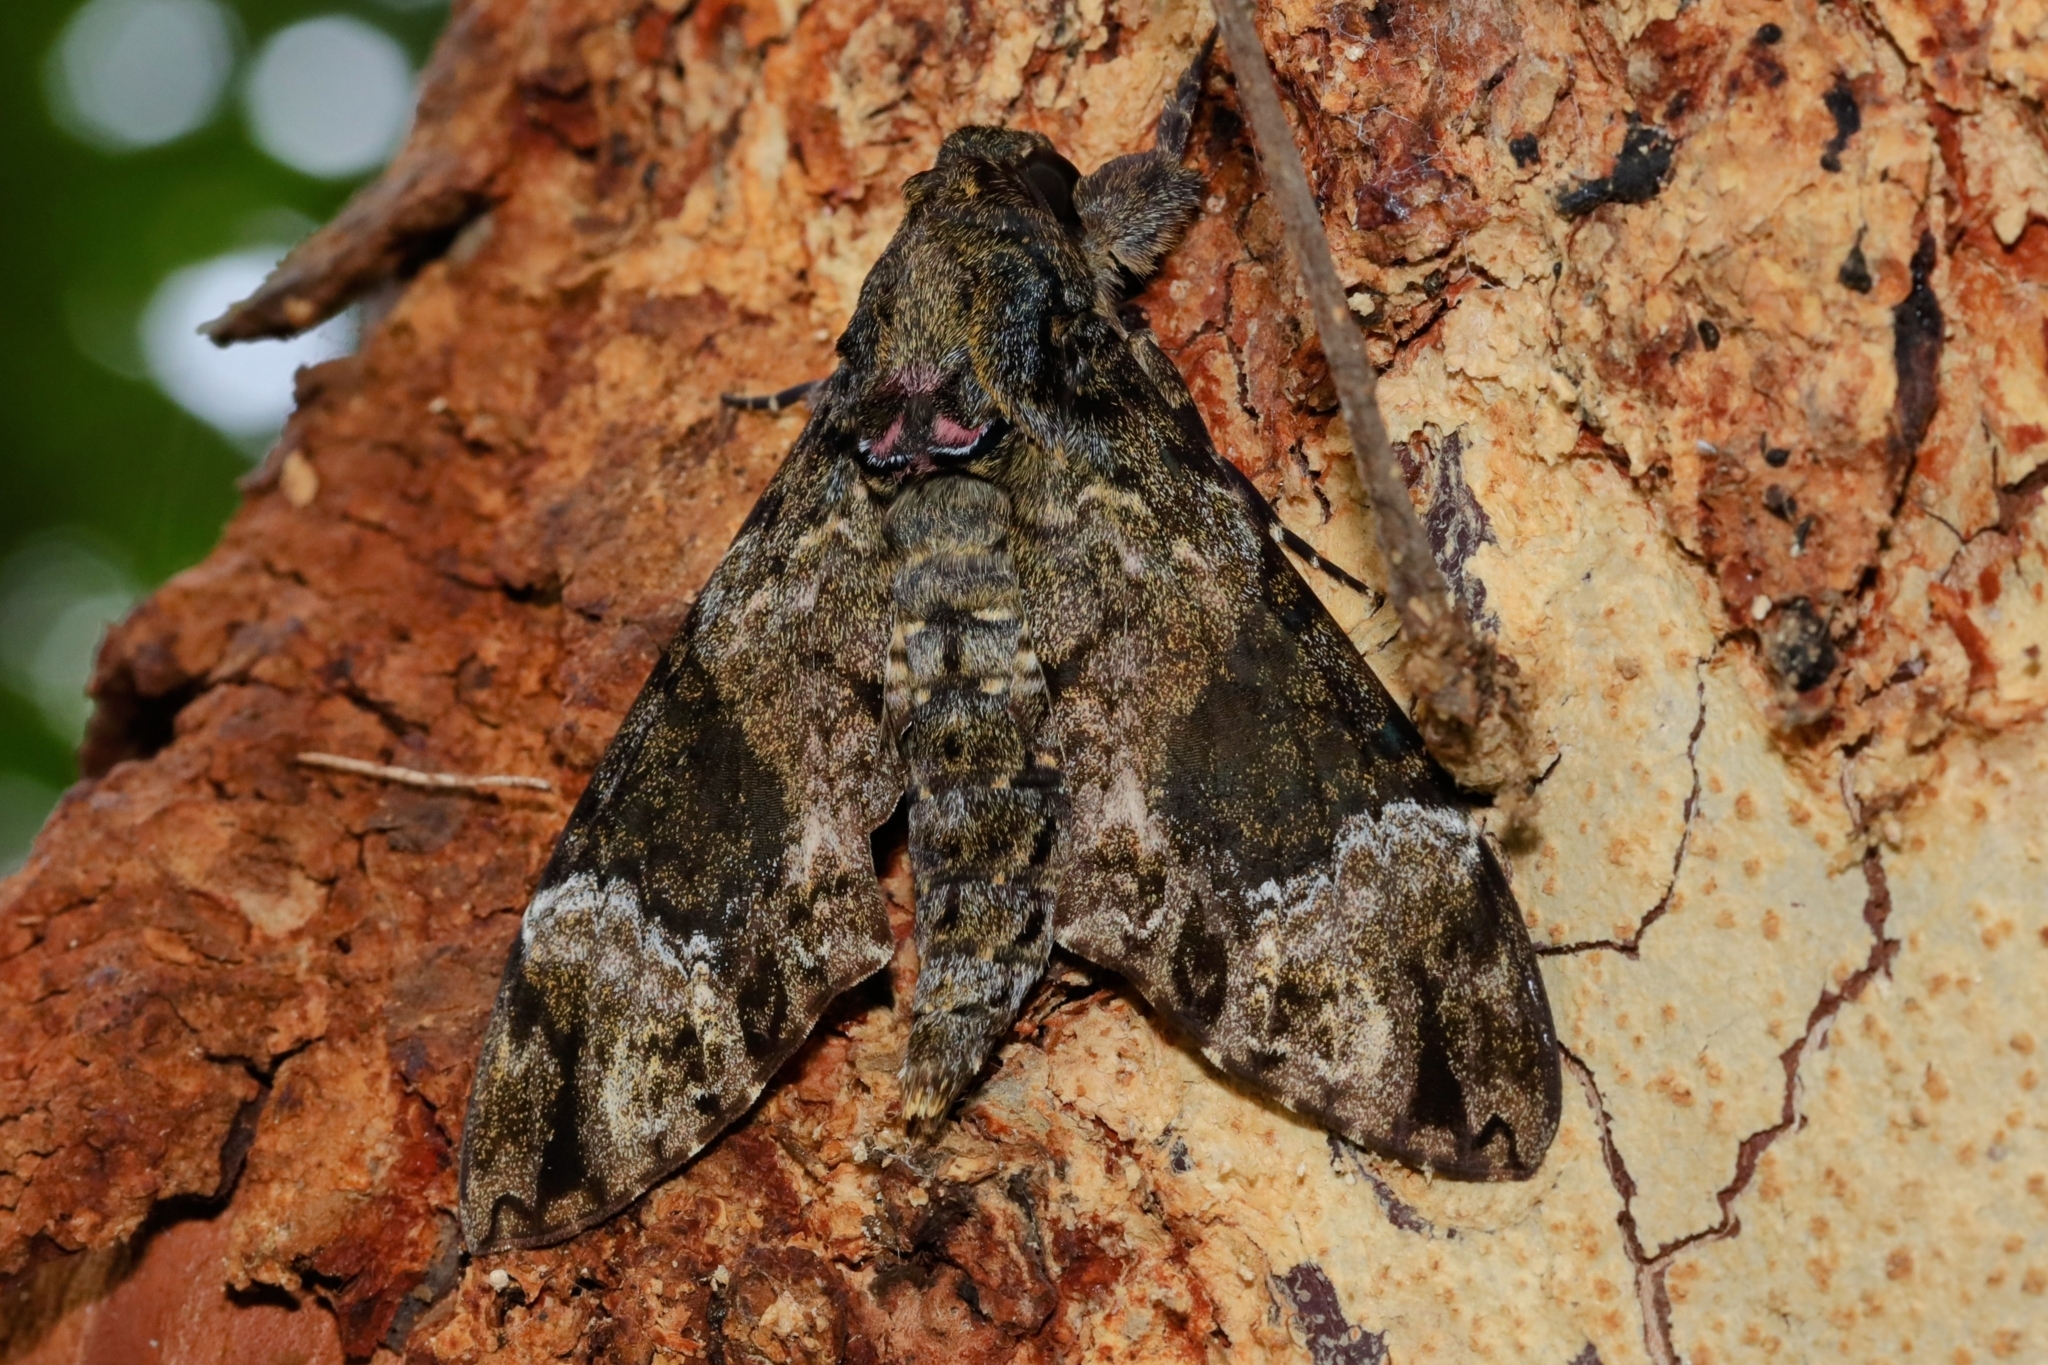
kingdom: Animalia
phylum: Arthropoda
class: Insecta
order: Lepidoptera
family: Sphingidae
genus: Coelonia
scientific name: Coelonia fulvinotata
